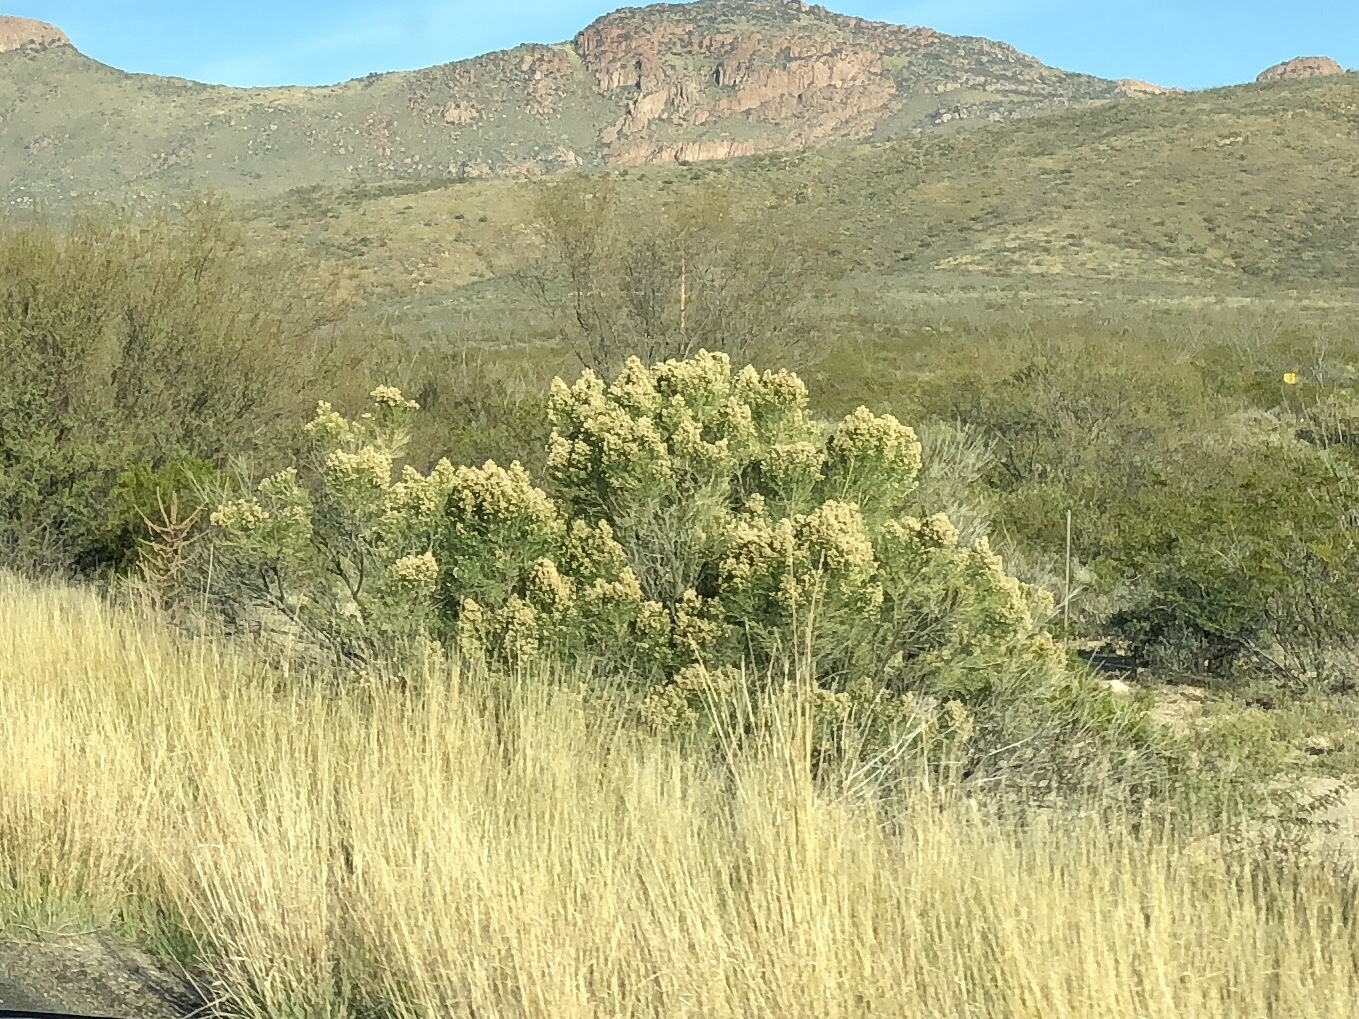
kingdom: Plantae
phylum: Tracheophyta
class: Magnoliopsida
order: Asterales
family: Asteraceae
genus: Baccharis
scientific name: Baccharis sarothroides
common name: Desert-broom
